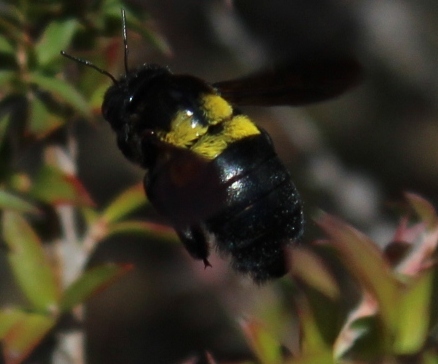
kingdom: Animalia
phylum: Arthropoda
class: Insecta
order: Hymenoptera
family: Apidae
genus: Xylocopa
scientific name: Xylocopa caffra
